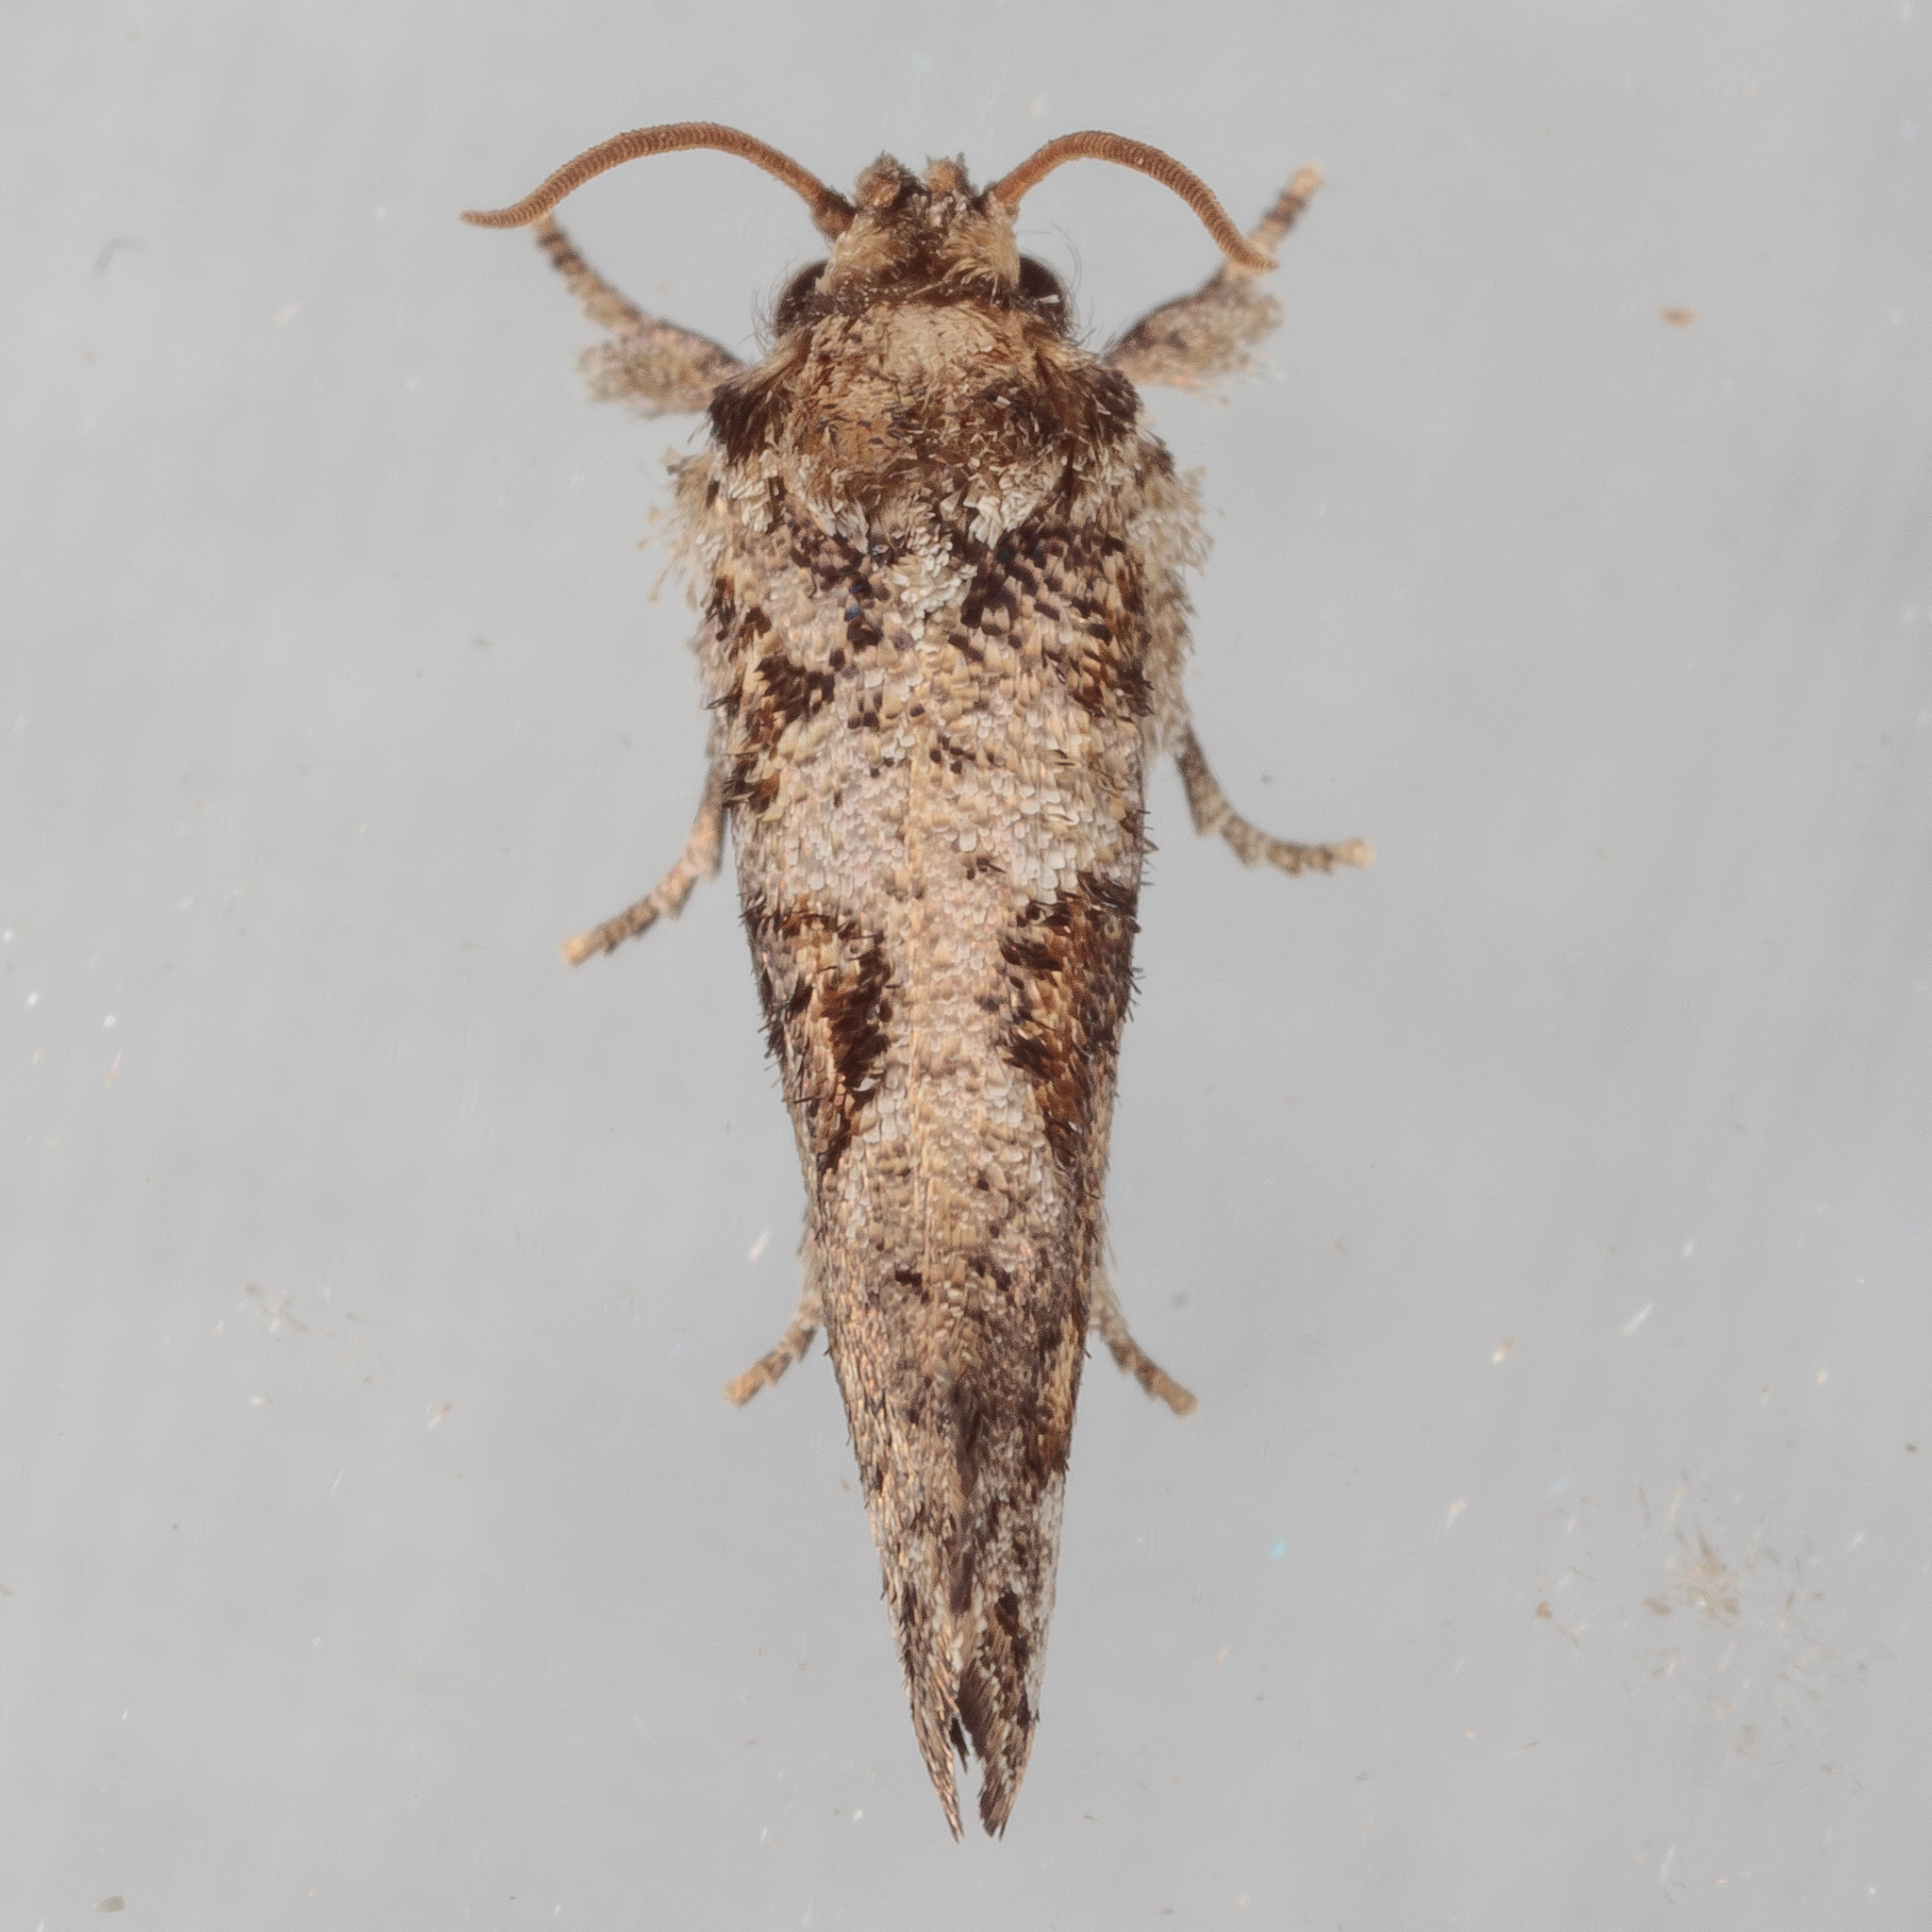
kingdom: Animalia
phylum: Arthropoda
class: Insecta
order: Lepidoptera
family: Tineidae
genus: Acrolophus
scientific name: Acrolophus piger
